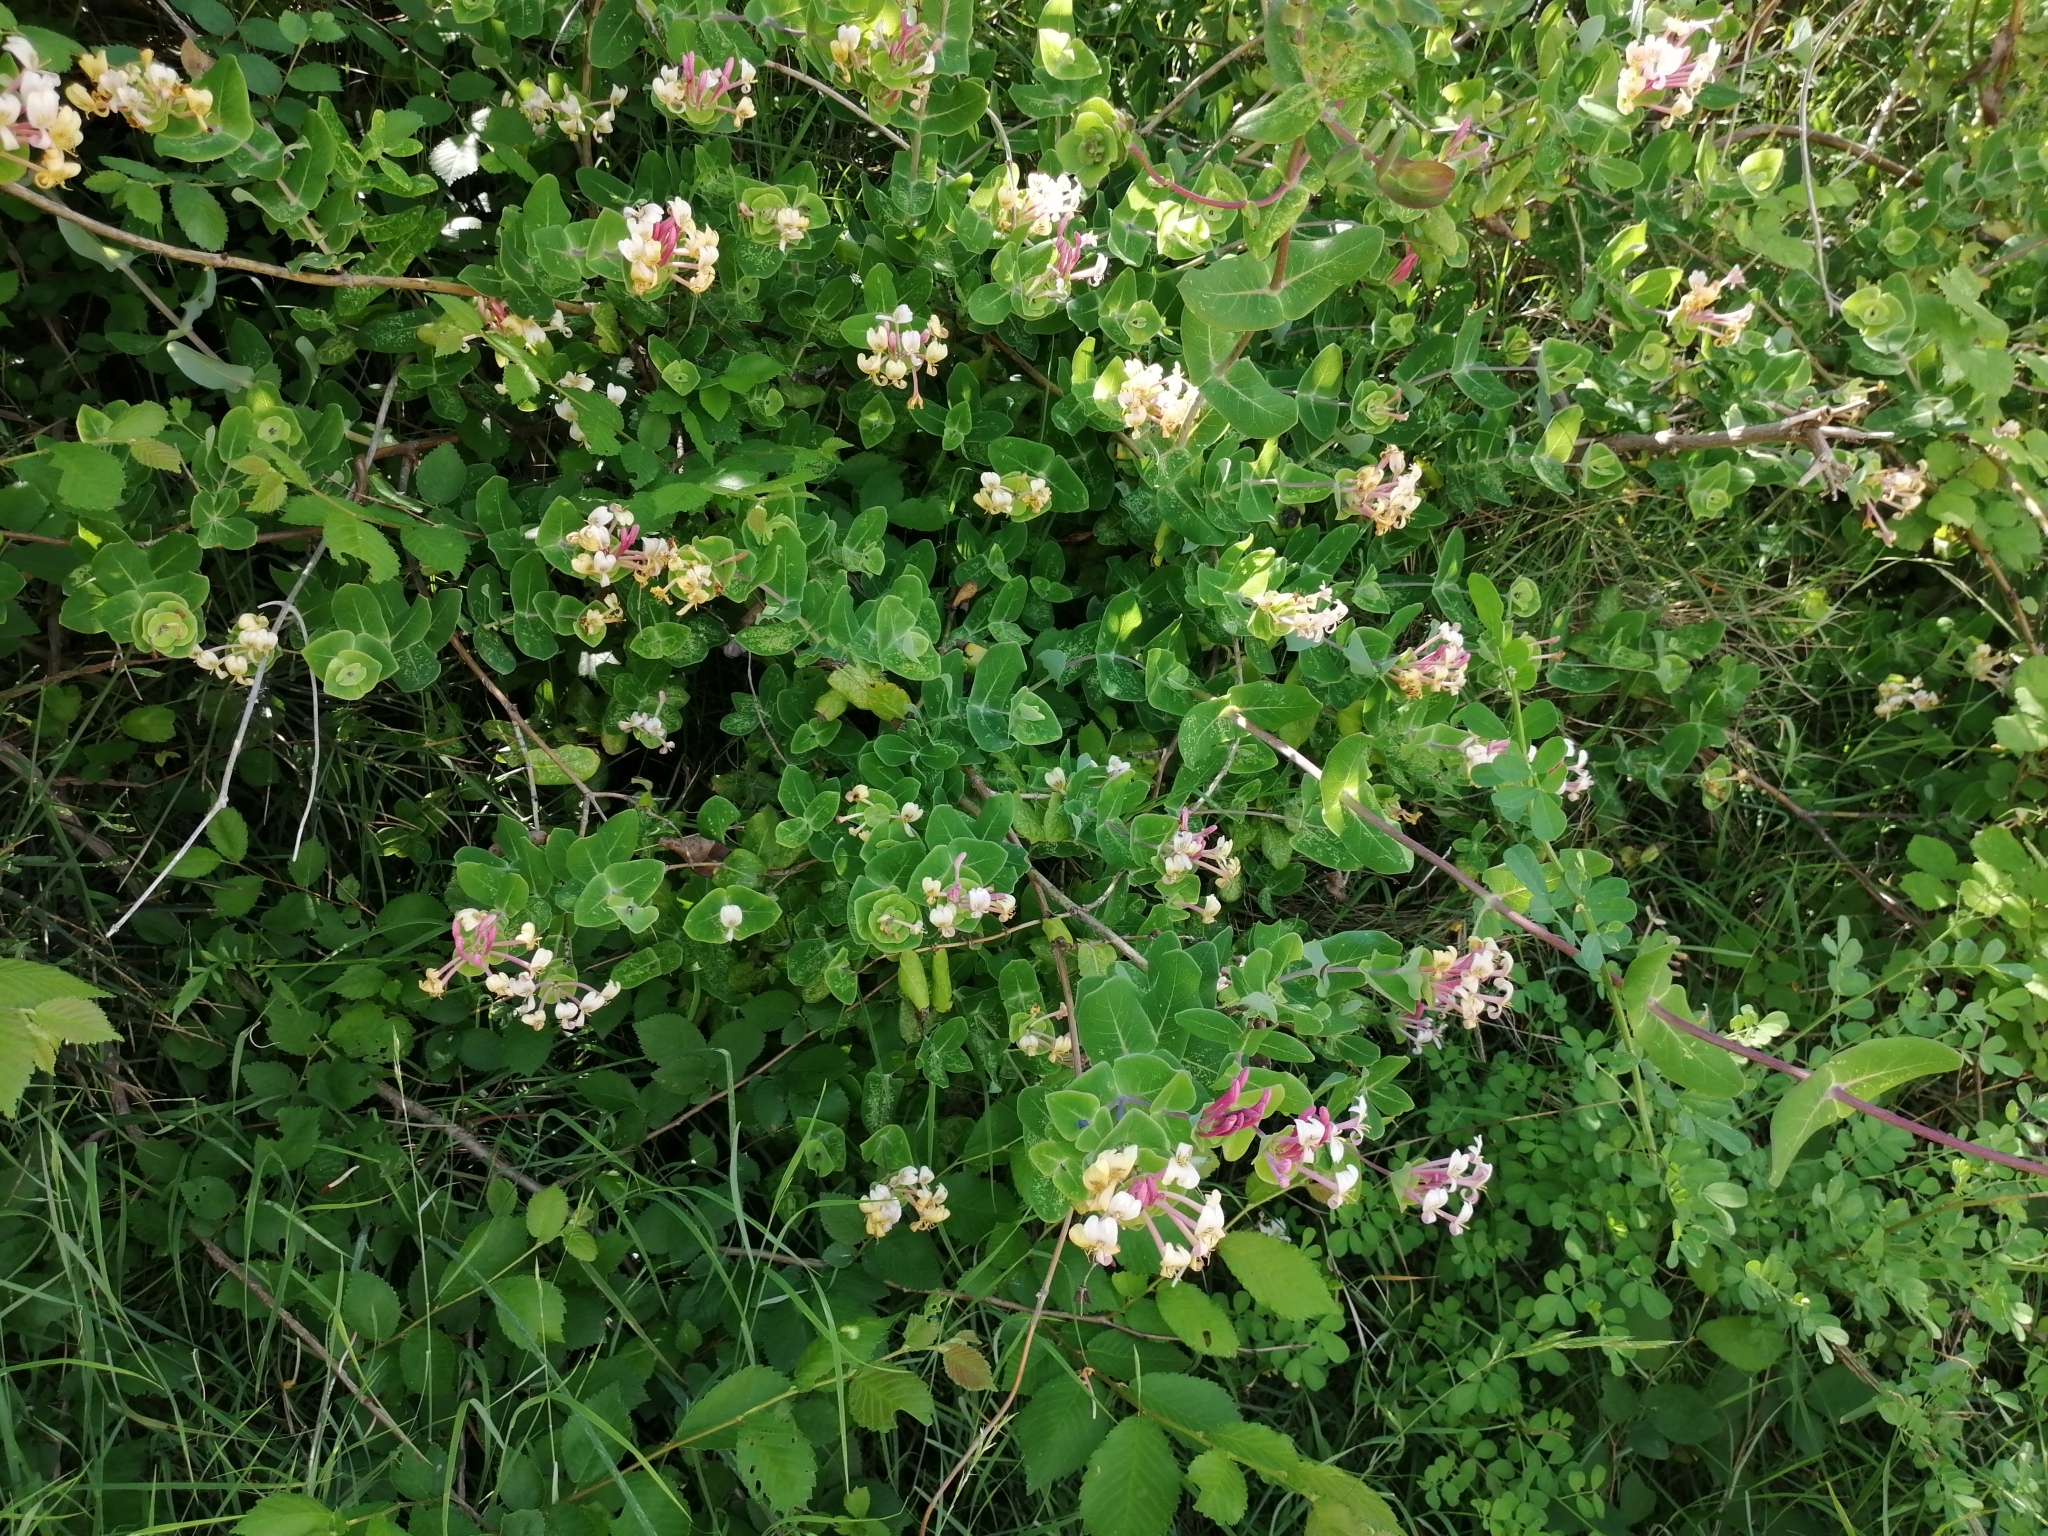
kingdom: Plantae
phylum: Tracheophyta
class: Magnoliopsida
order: Dipsacales
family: Caprifoliaceae
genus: Lonicera
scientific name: Lonicera implexa
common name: Minorca honeysuckle
